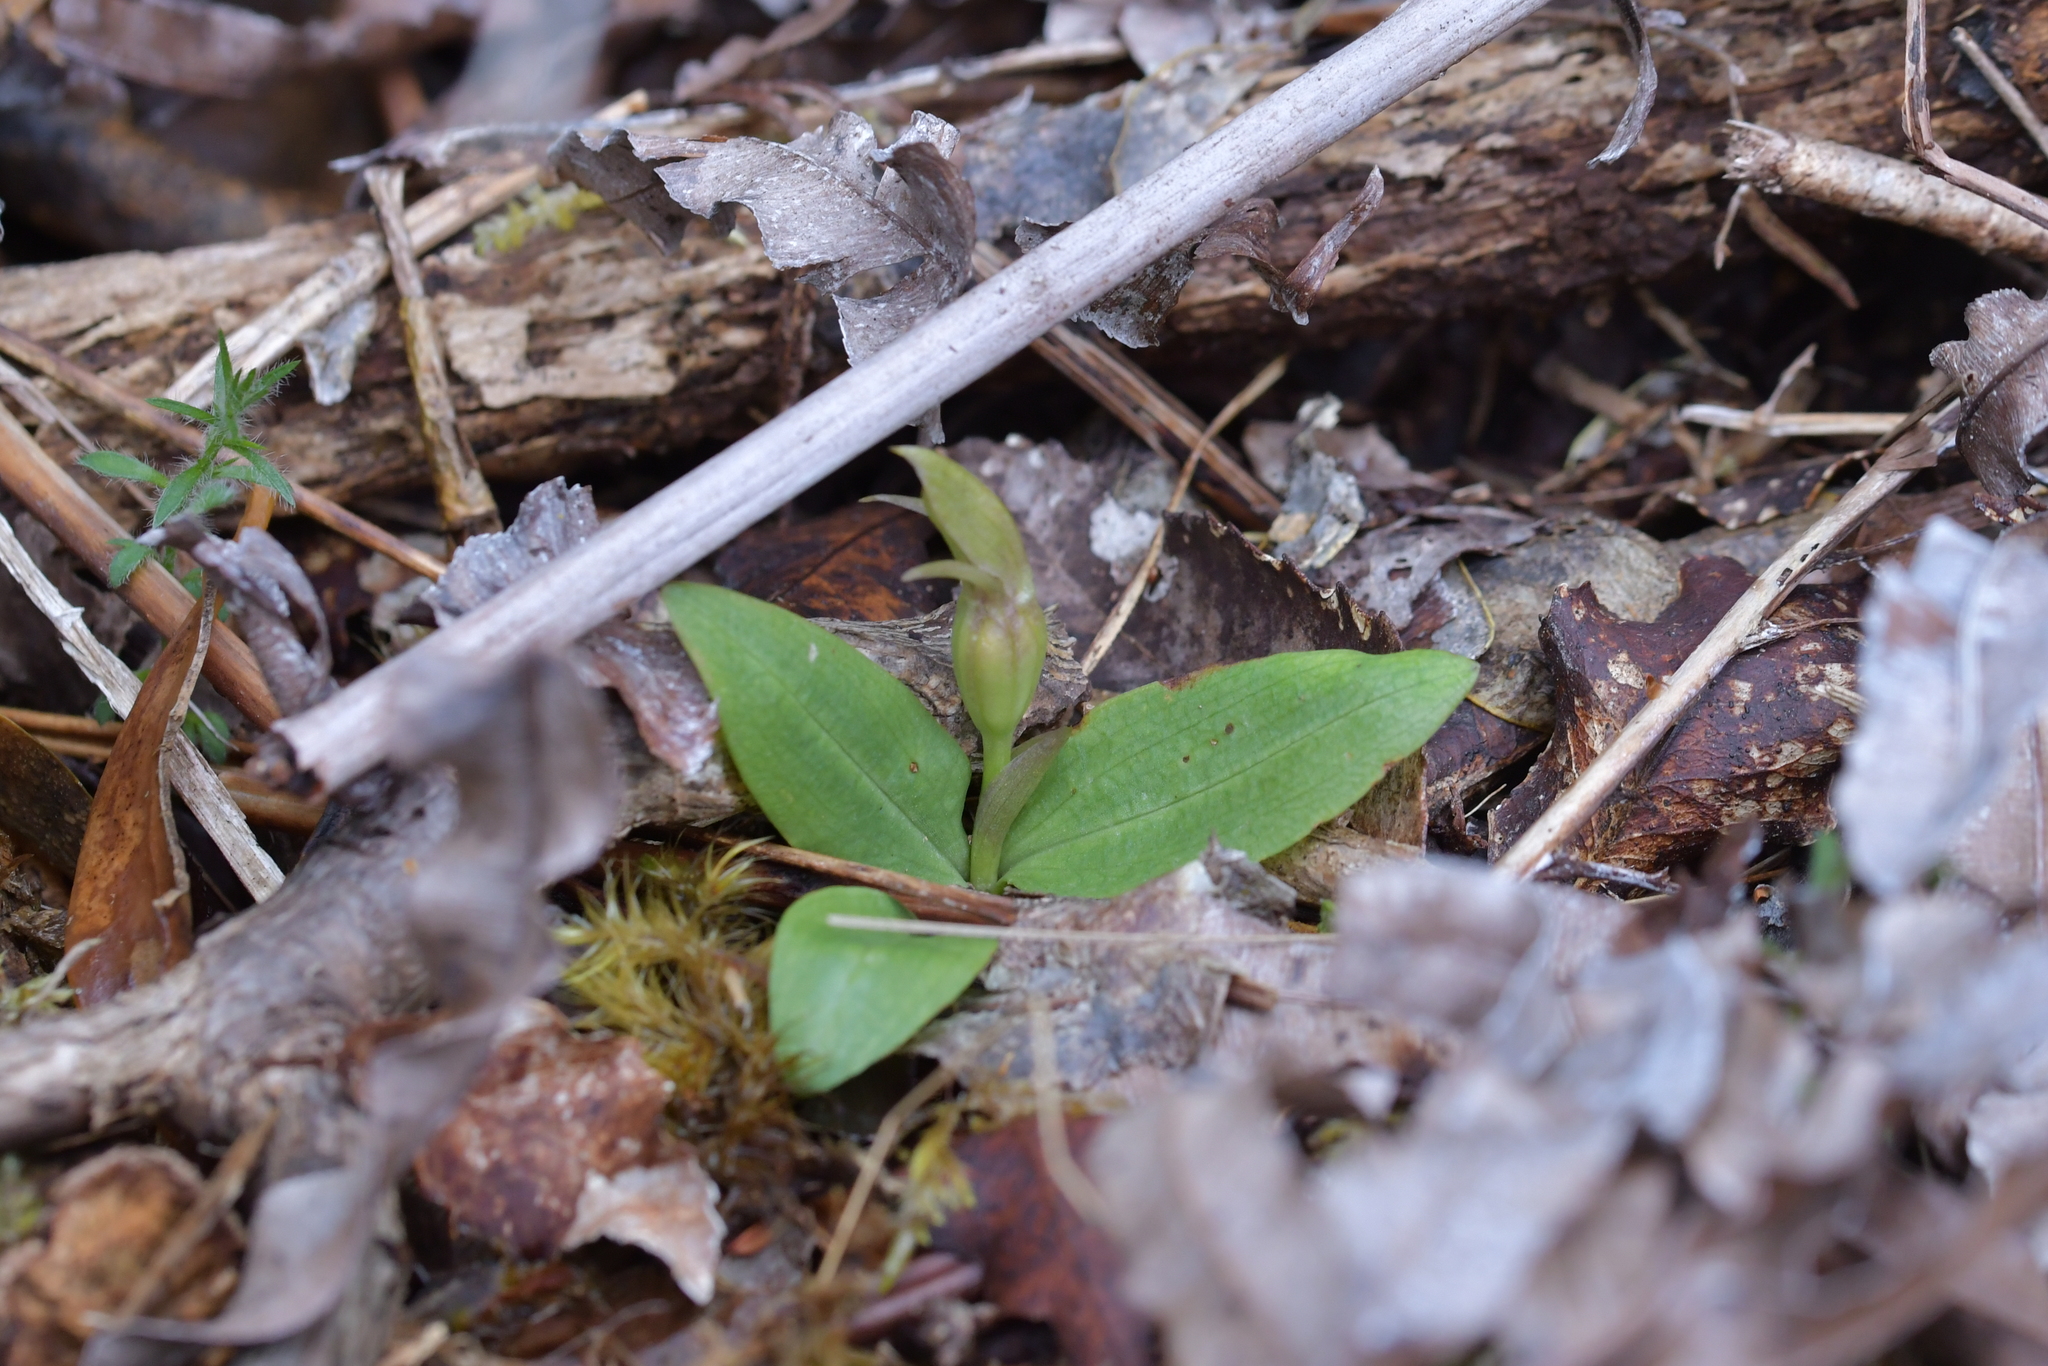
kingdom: Plantae
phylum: Tracheophyta
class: Liliopsida
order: Asparagales
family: Orchidaceae
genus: Chiloglottis
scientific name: Chiloglottis cornuta
